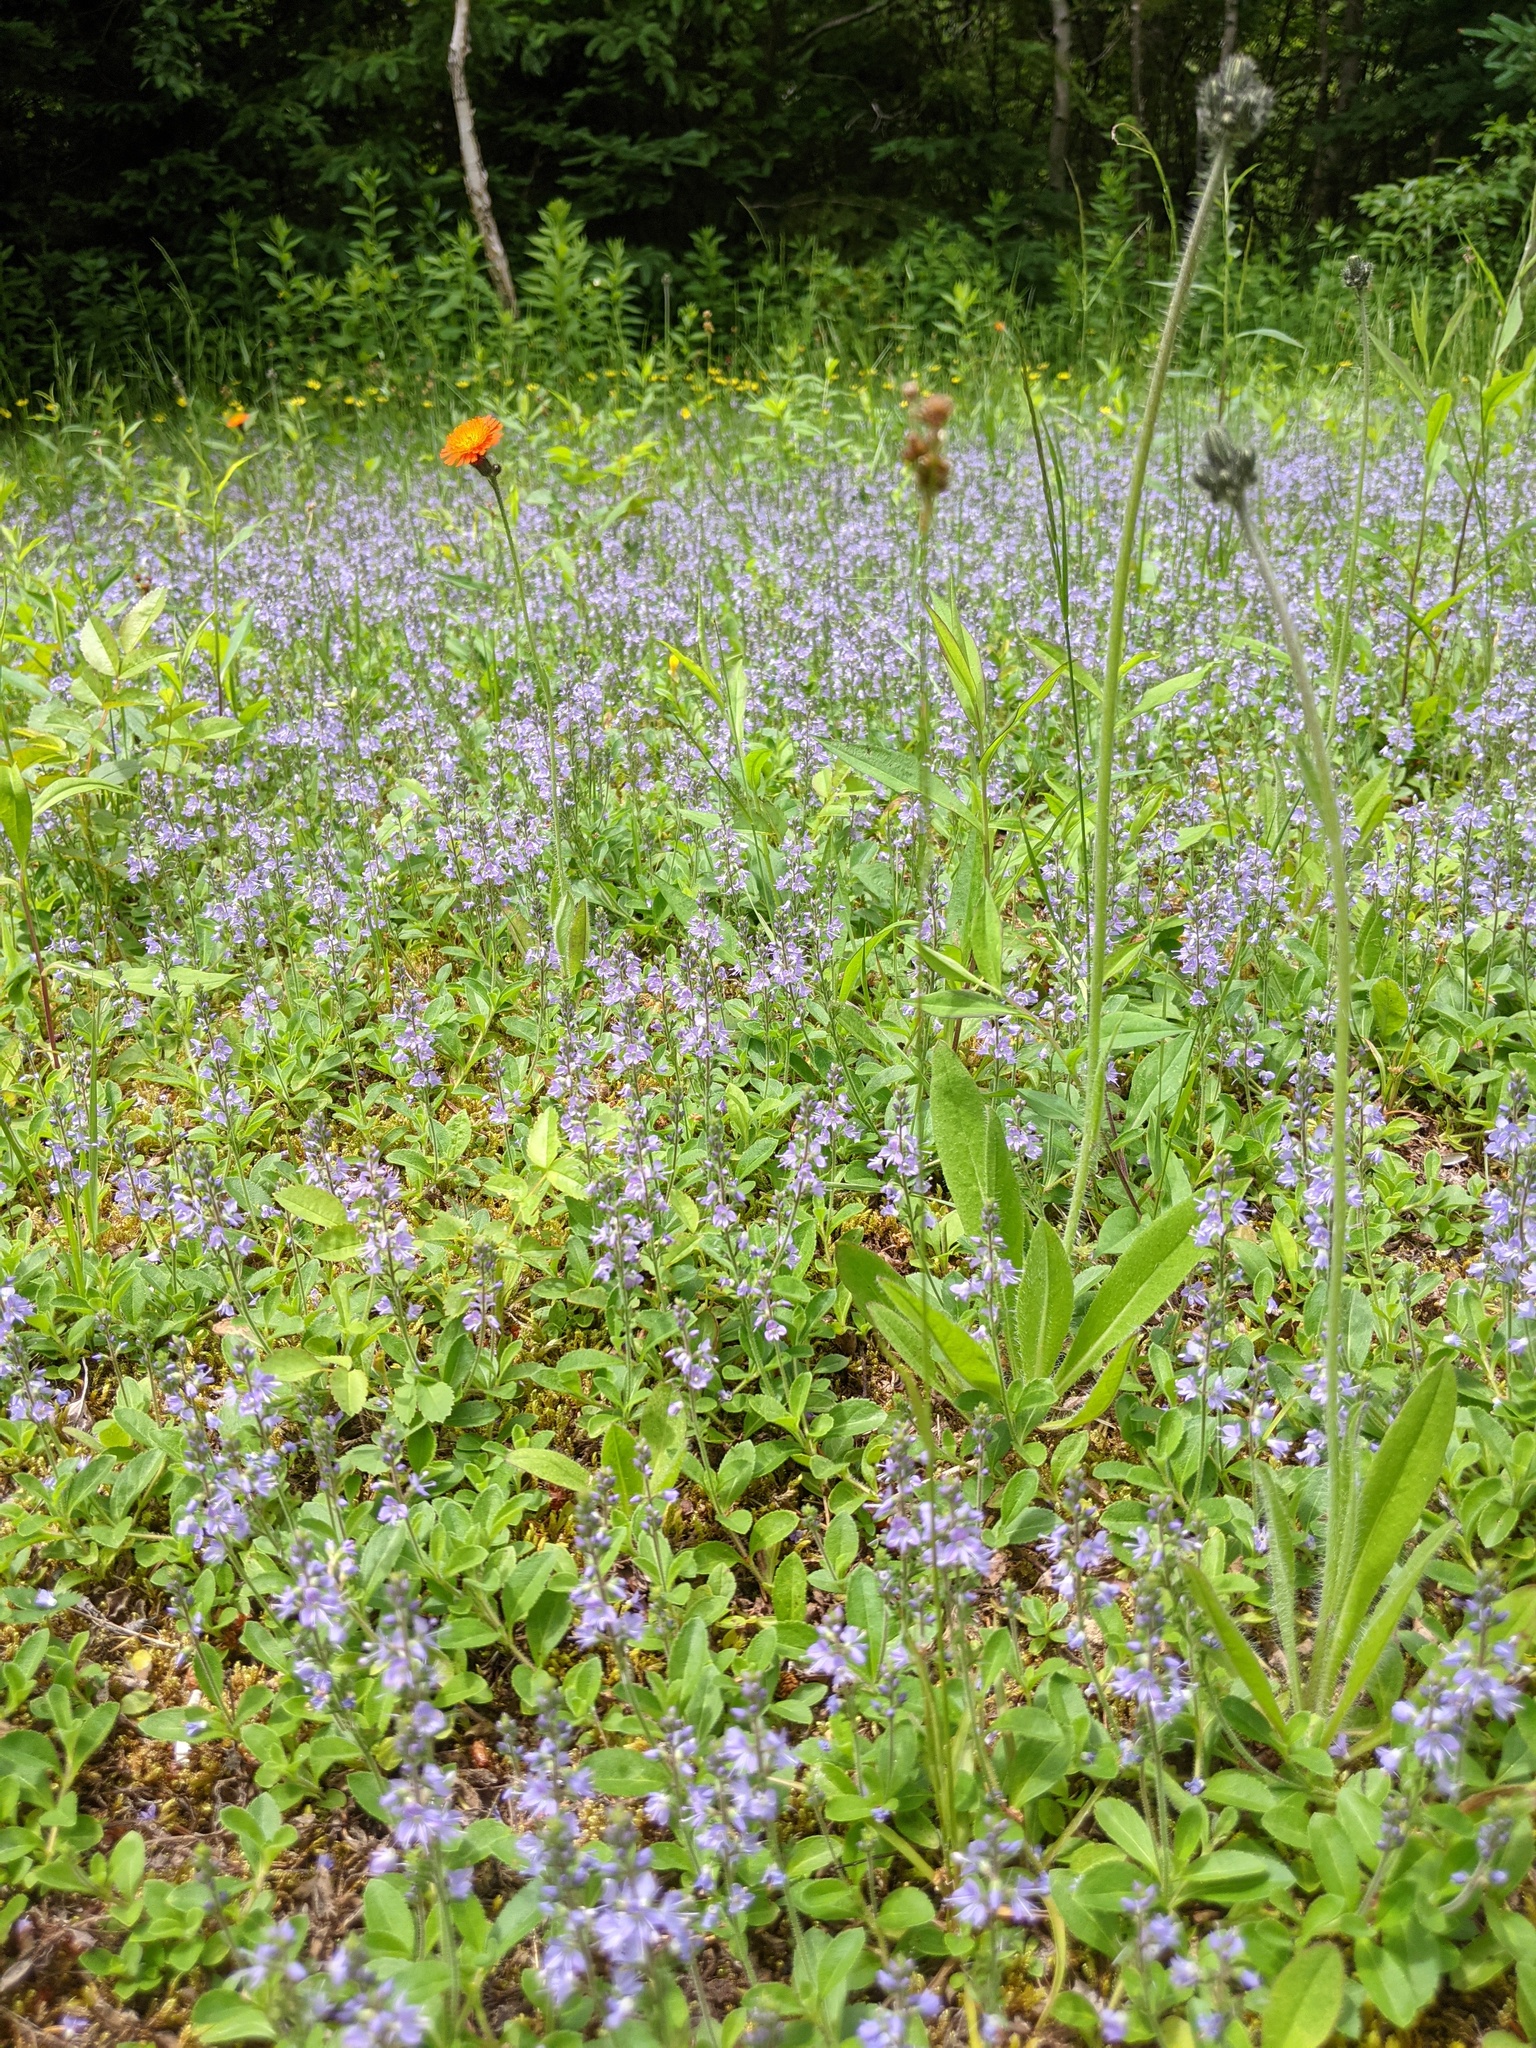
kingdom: Plantae
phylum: Tracheophyta
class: Magnoliopsida
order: Lamiales
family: Plantaginaceae
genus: Veronica
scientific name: Veronica officinalis
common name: Common speedwell
